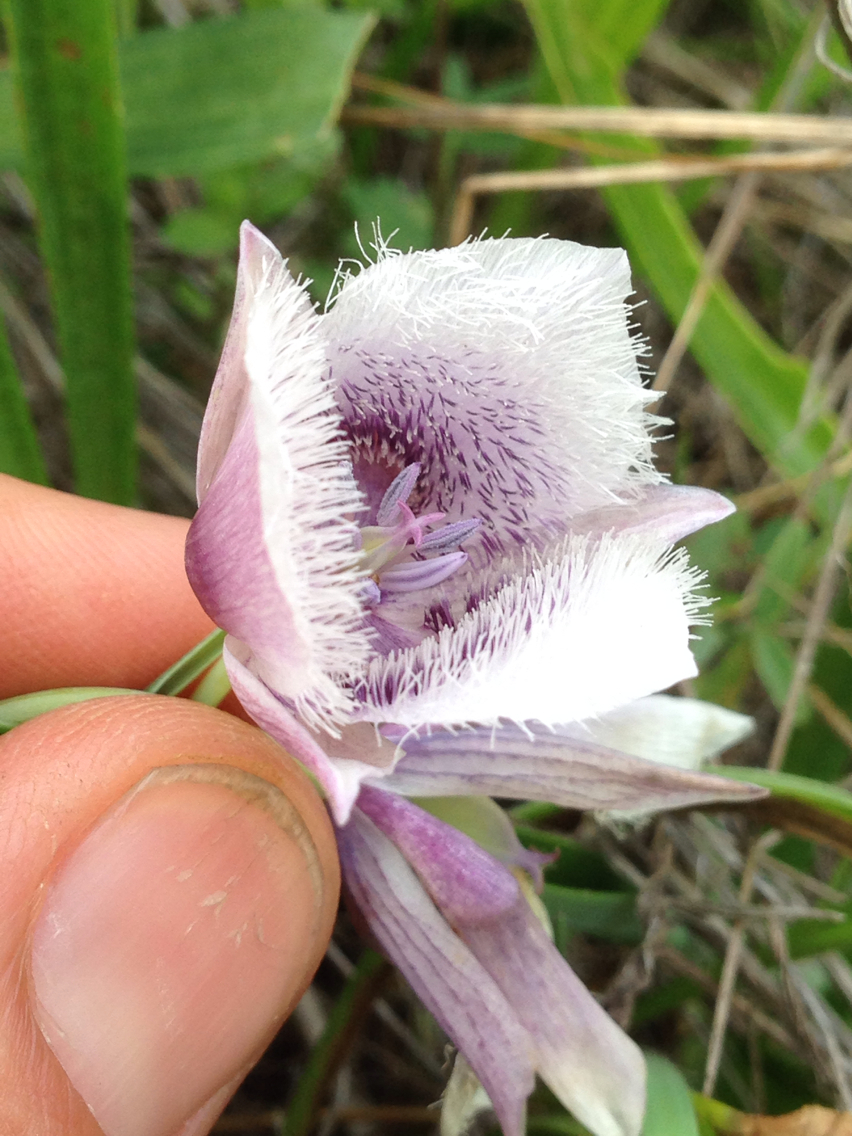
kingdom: Plantae
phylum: Tracheophyta
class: Liliopsida
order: Liliales
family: Liliaceae
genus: Calochortus
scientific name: Calochortus tolmiei
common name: Pussy-ears
